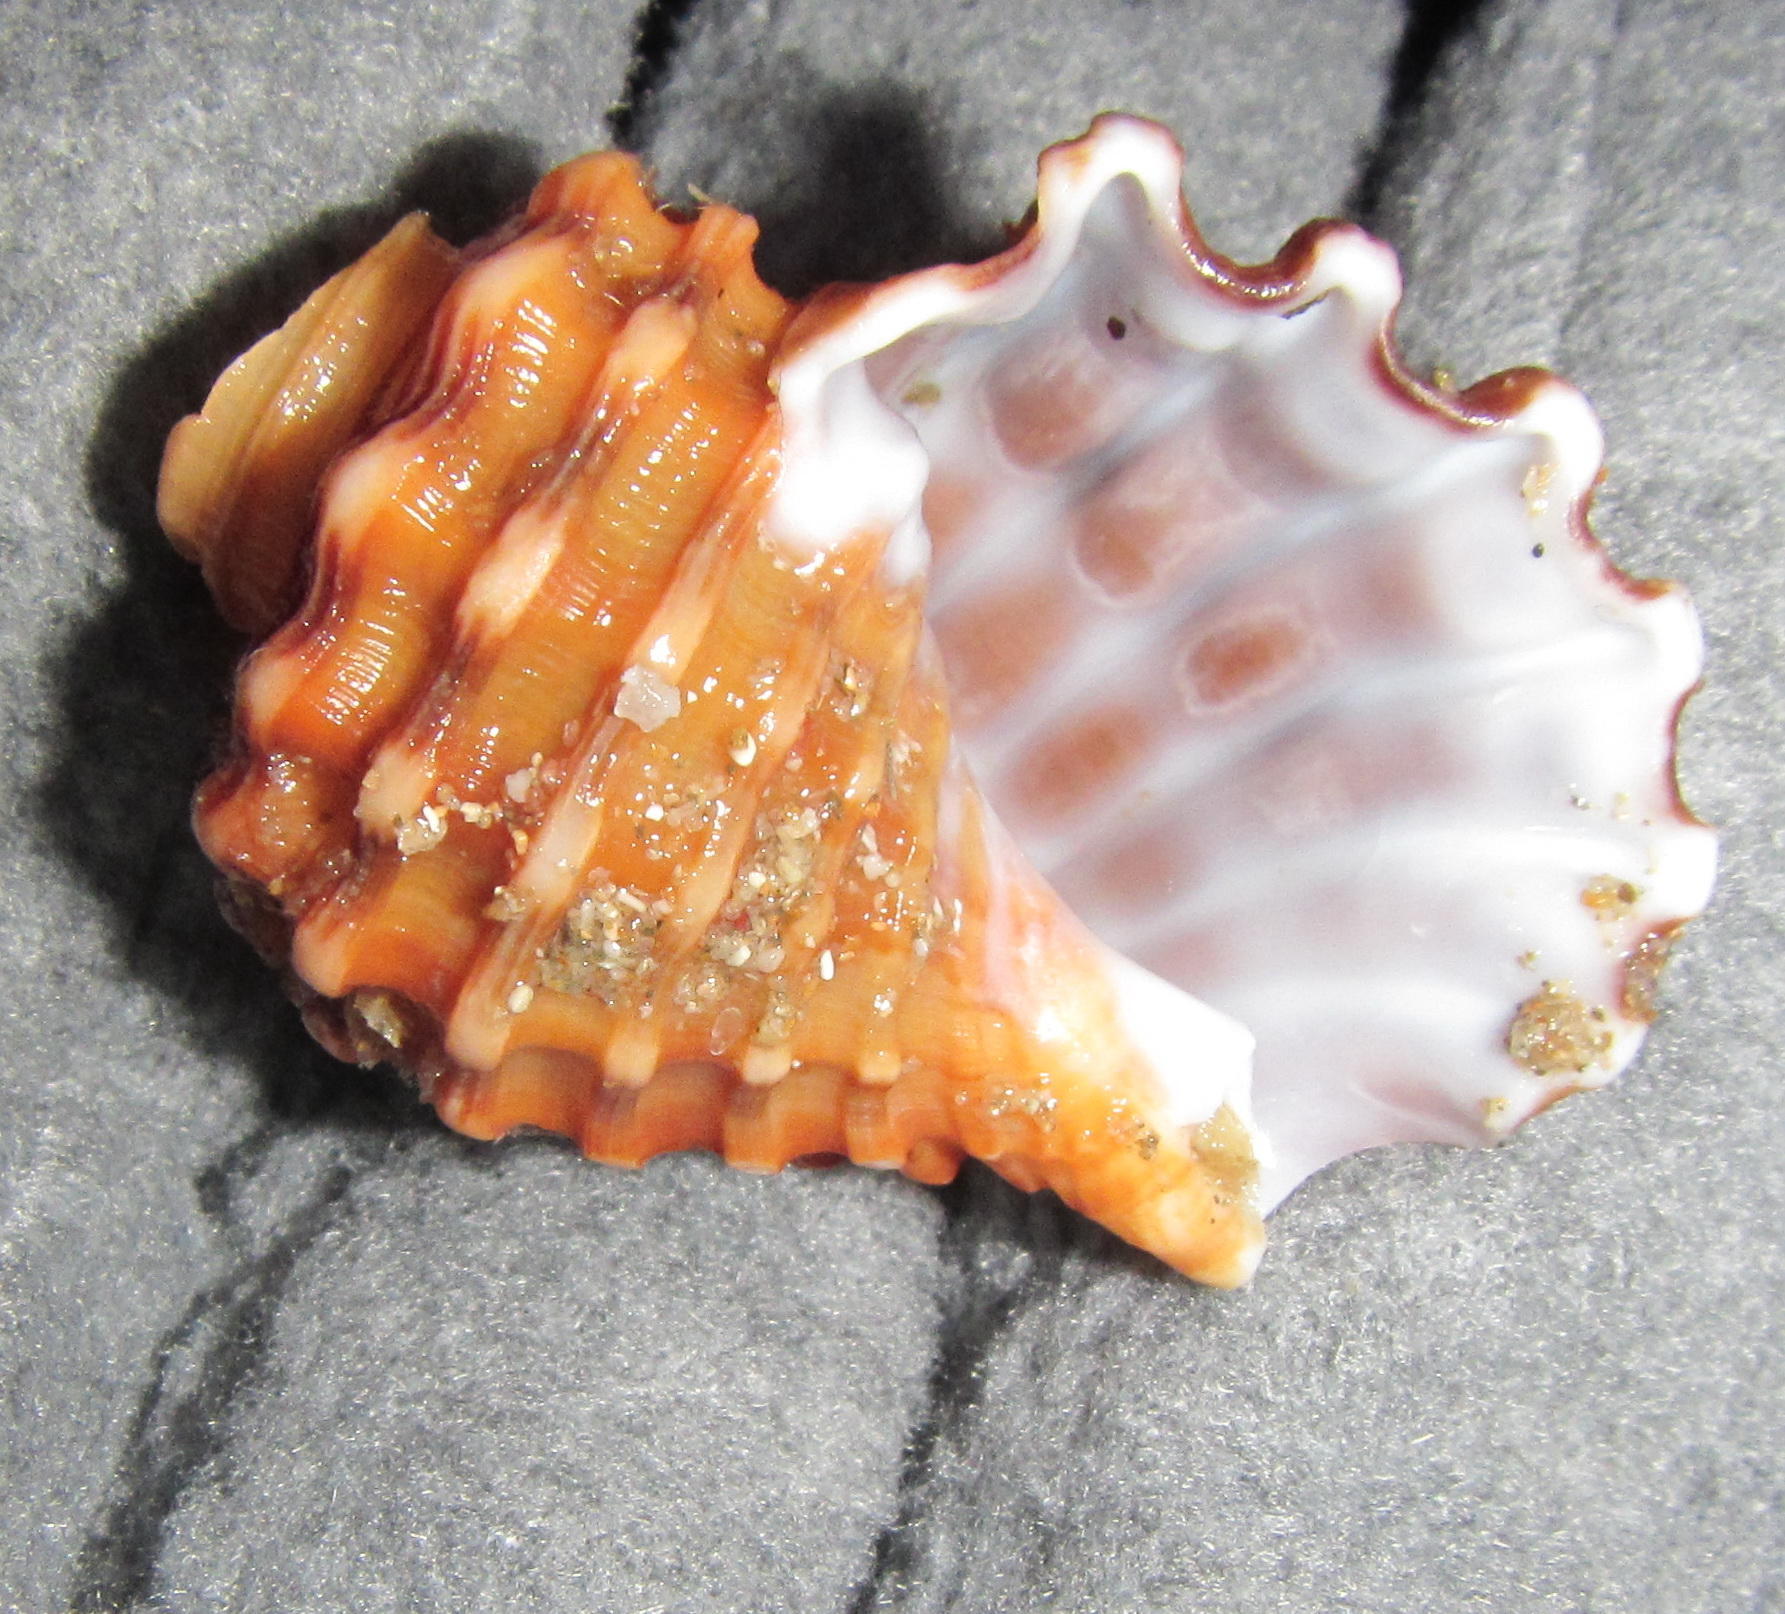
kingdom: Animalia
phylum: Mollusca
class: Gastropoda
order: Littorinimorpha
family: Cymatiidae
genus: Cabestana
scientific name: Cabestana africana
